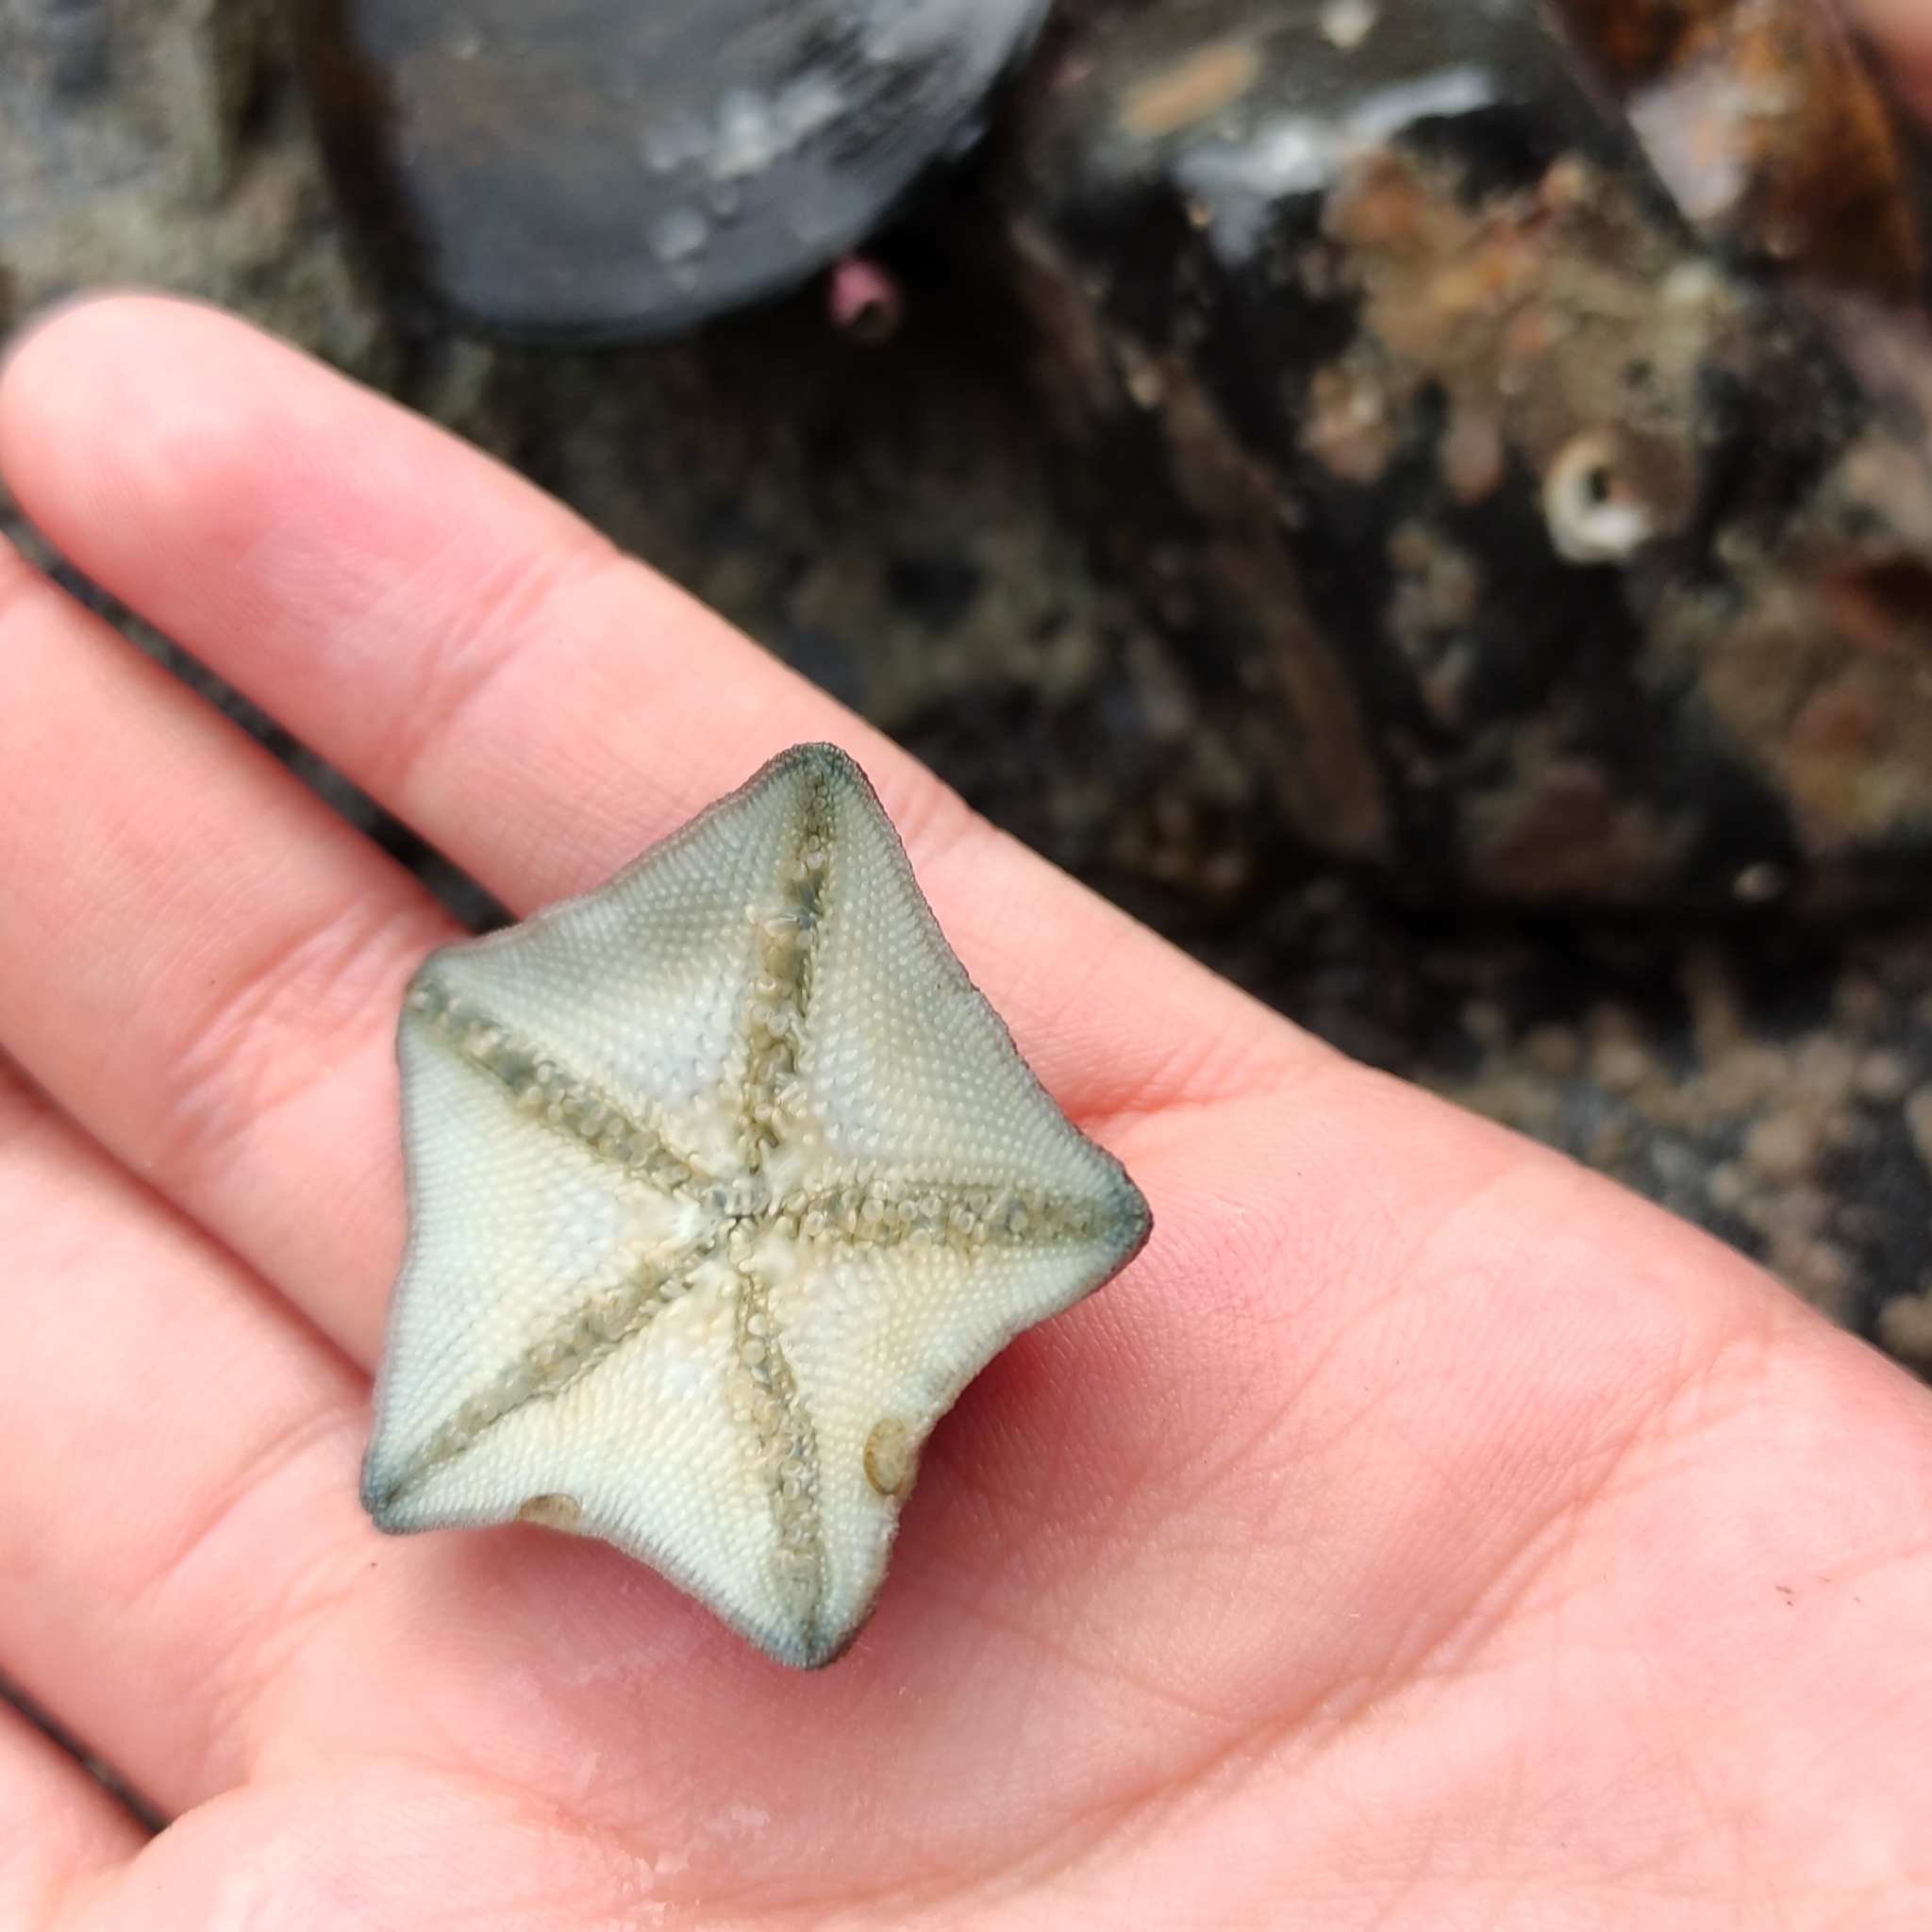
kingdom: Animalia
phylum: Echinodermata
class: Asteroidea
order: Valvatida
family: Asterinidae
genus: Patiriella
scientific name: Patiriella regularis
